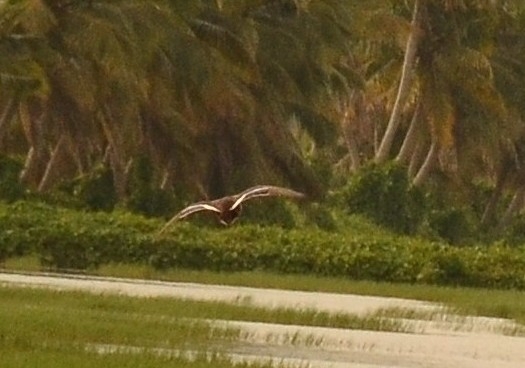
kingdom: Animalia
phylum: Chordata
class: Aves
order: Anseriformes
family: Anatidae
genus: Anas
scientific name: Anas poecilorhyncha
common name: Indian spot-billed duck
